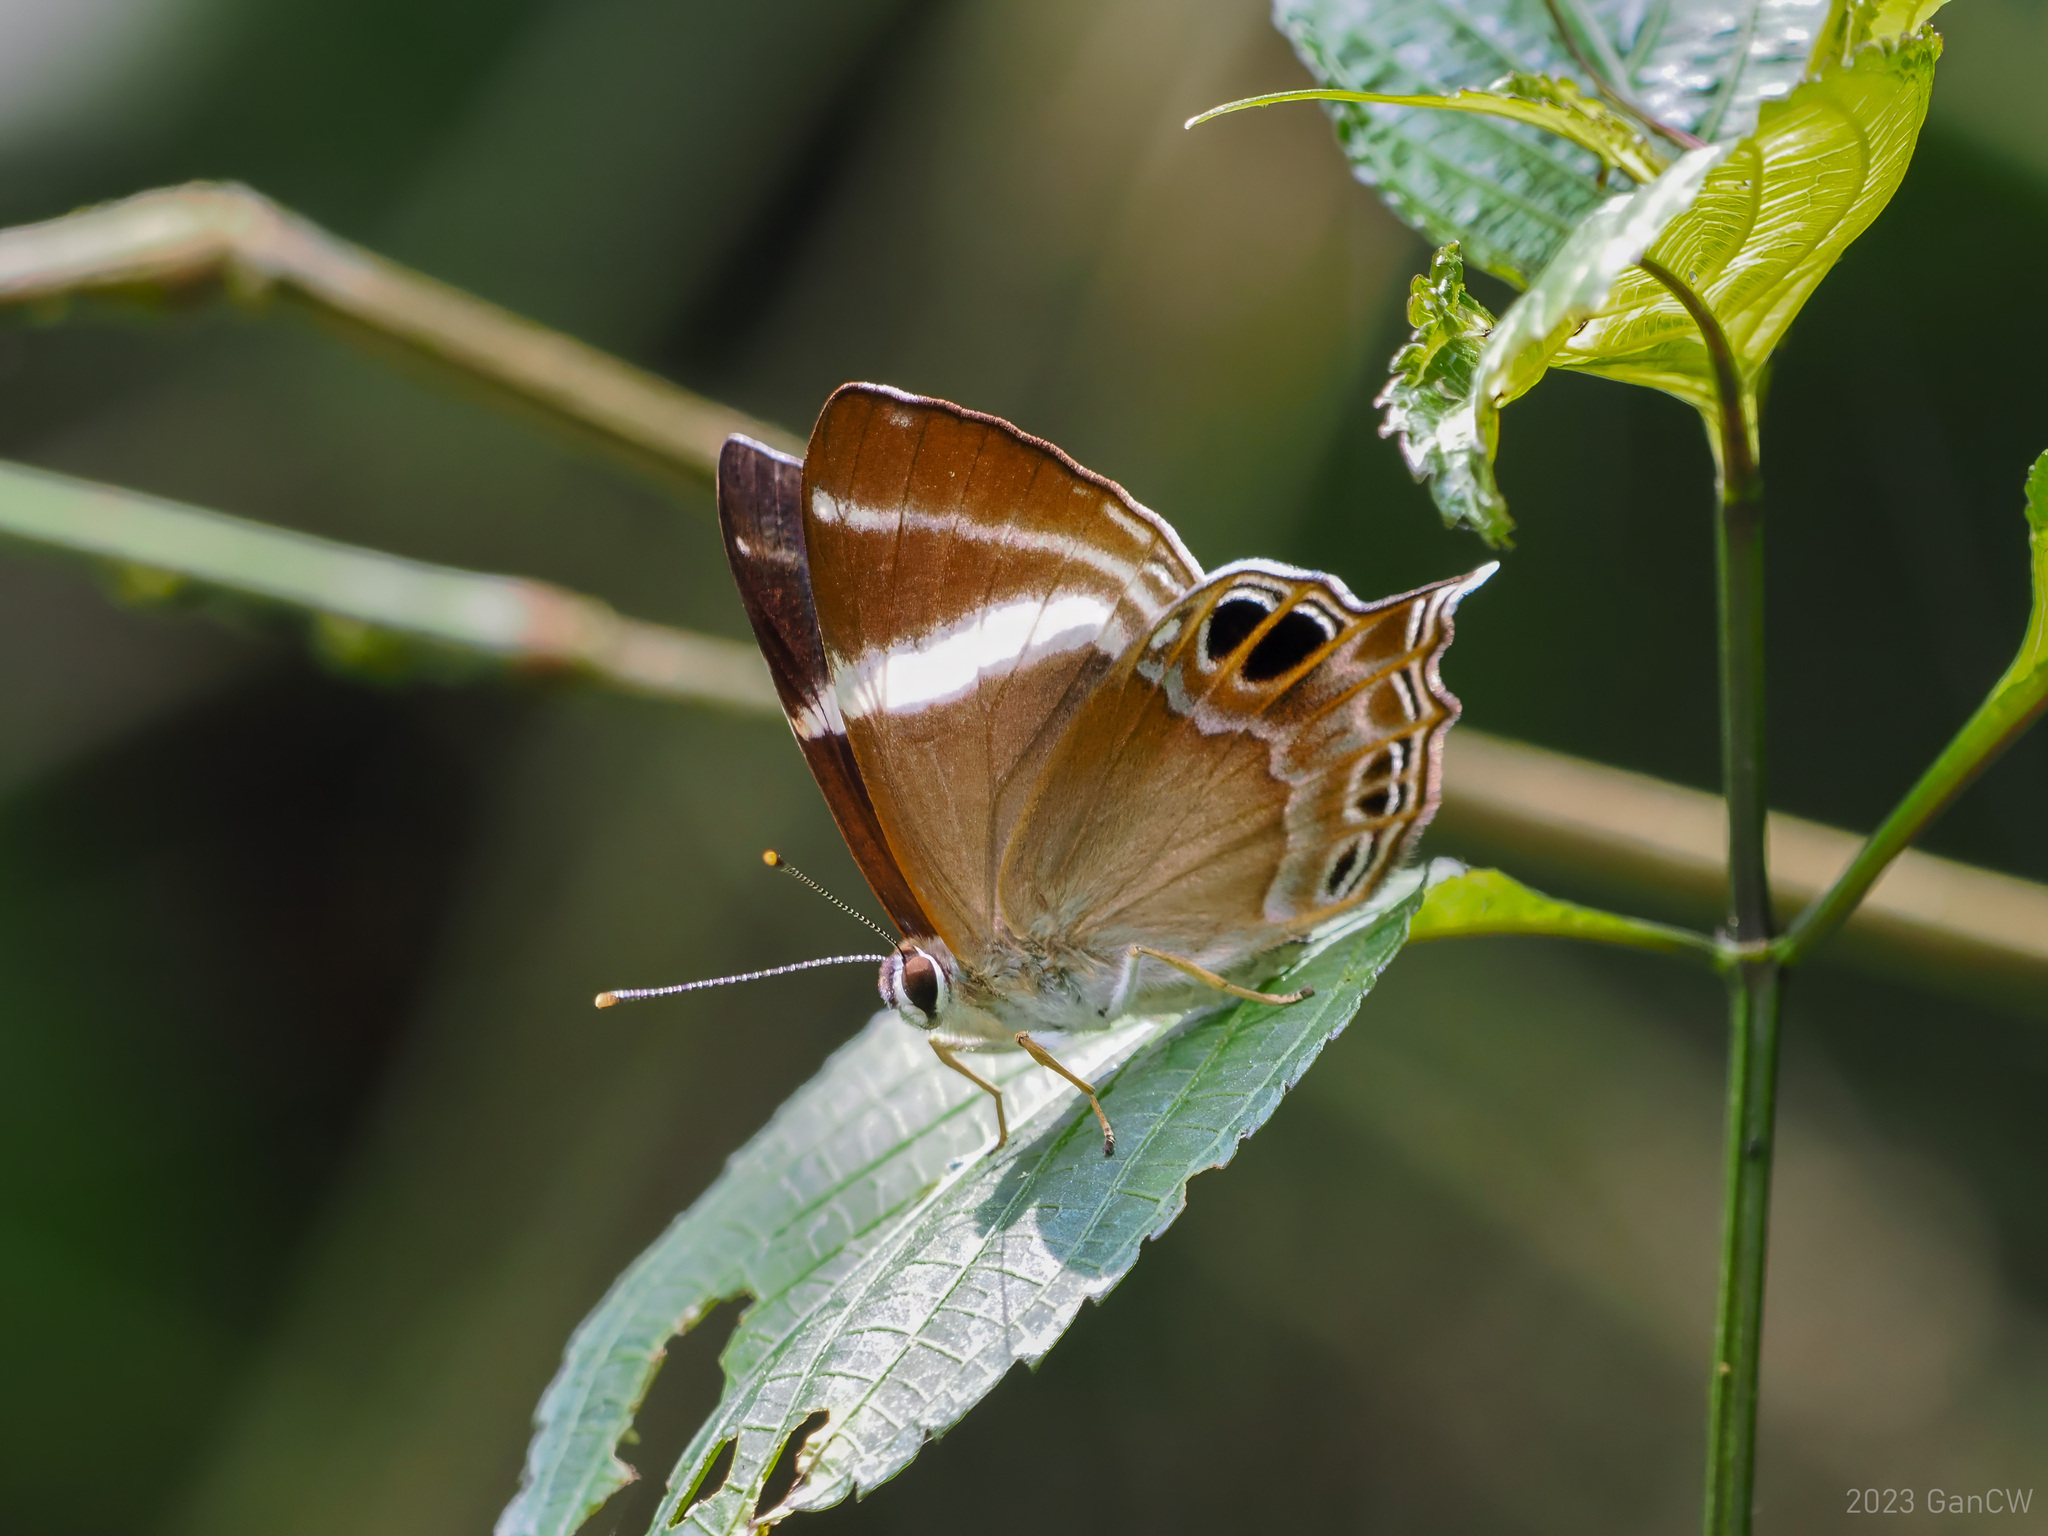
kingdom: Animalia
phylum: Arthropoda
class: Insecta
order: Lepidoptera
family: Lycaenidae
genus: Abisara
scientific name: Abisara chela
